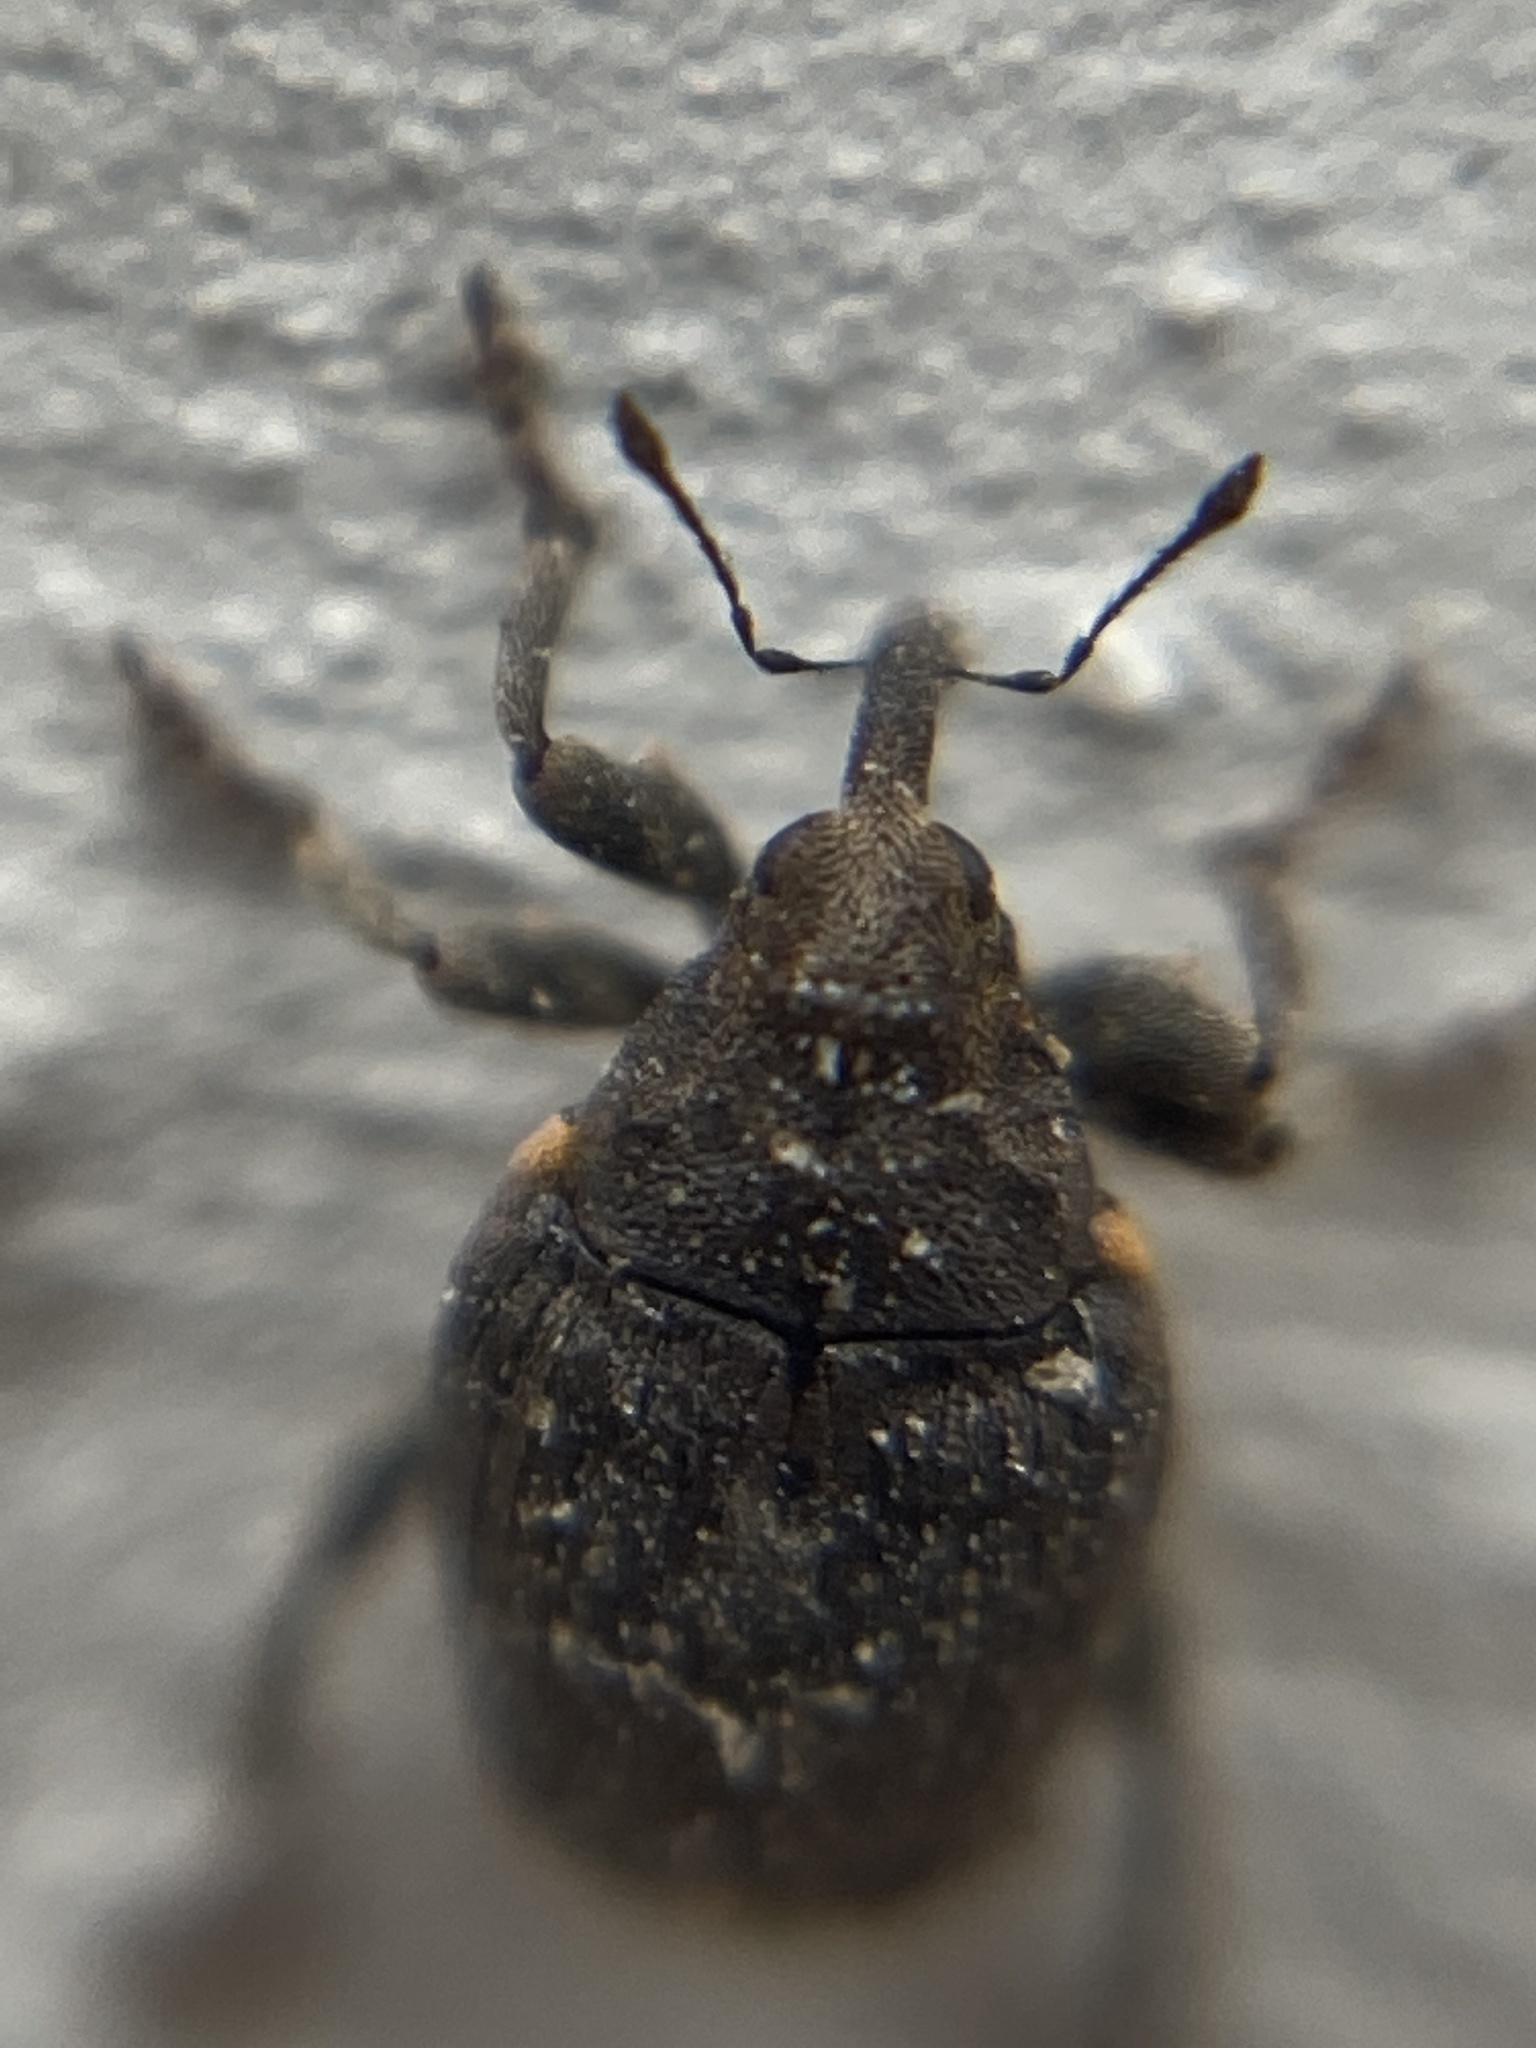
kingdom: Animalia
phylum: Arthropoda
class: Insecta
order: Coleoptera
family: Curculionidae
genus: Stenocarus
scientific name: Stenocarus ruficornis
